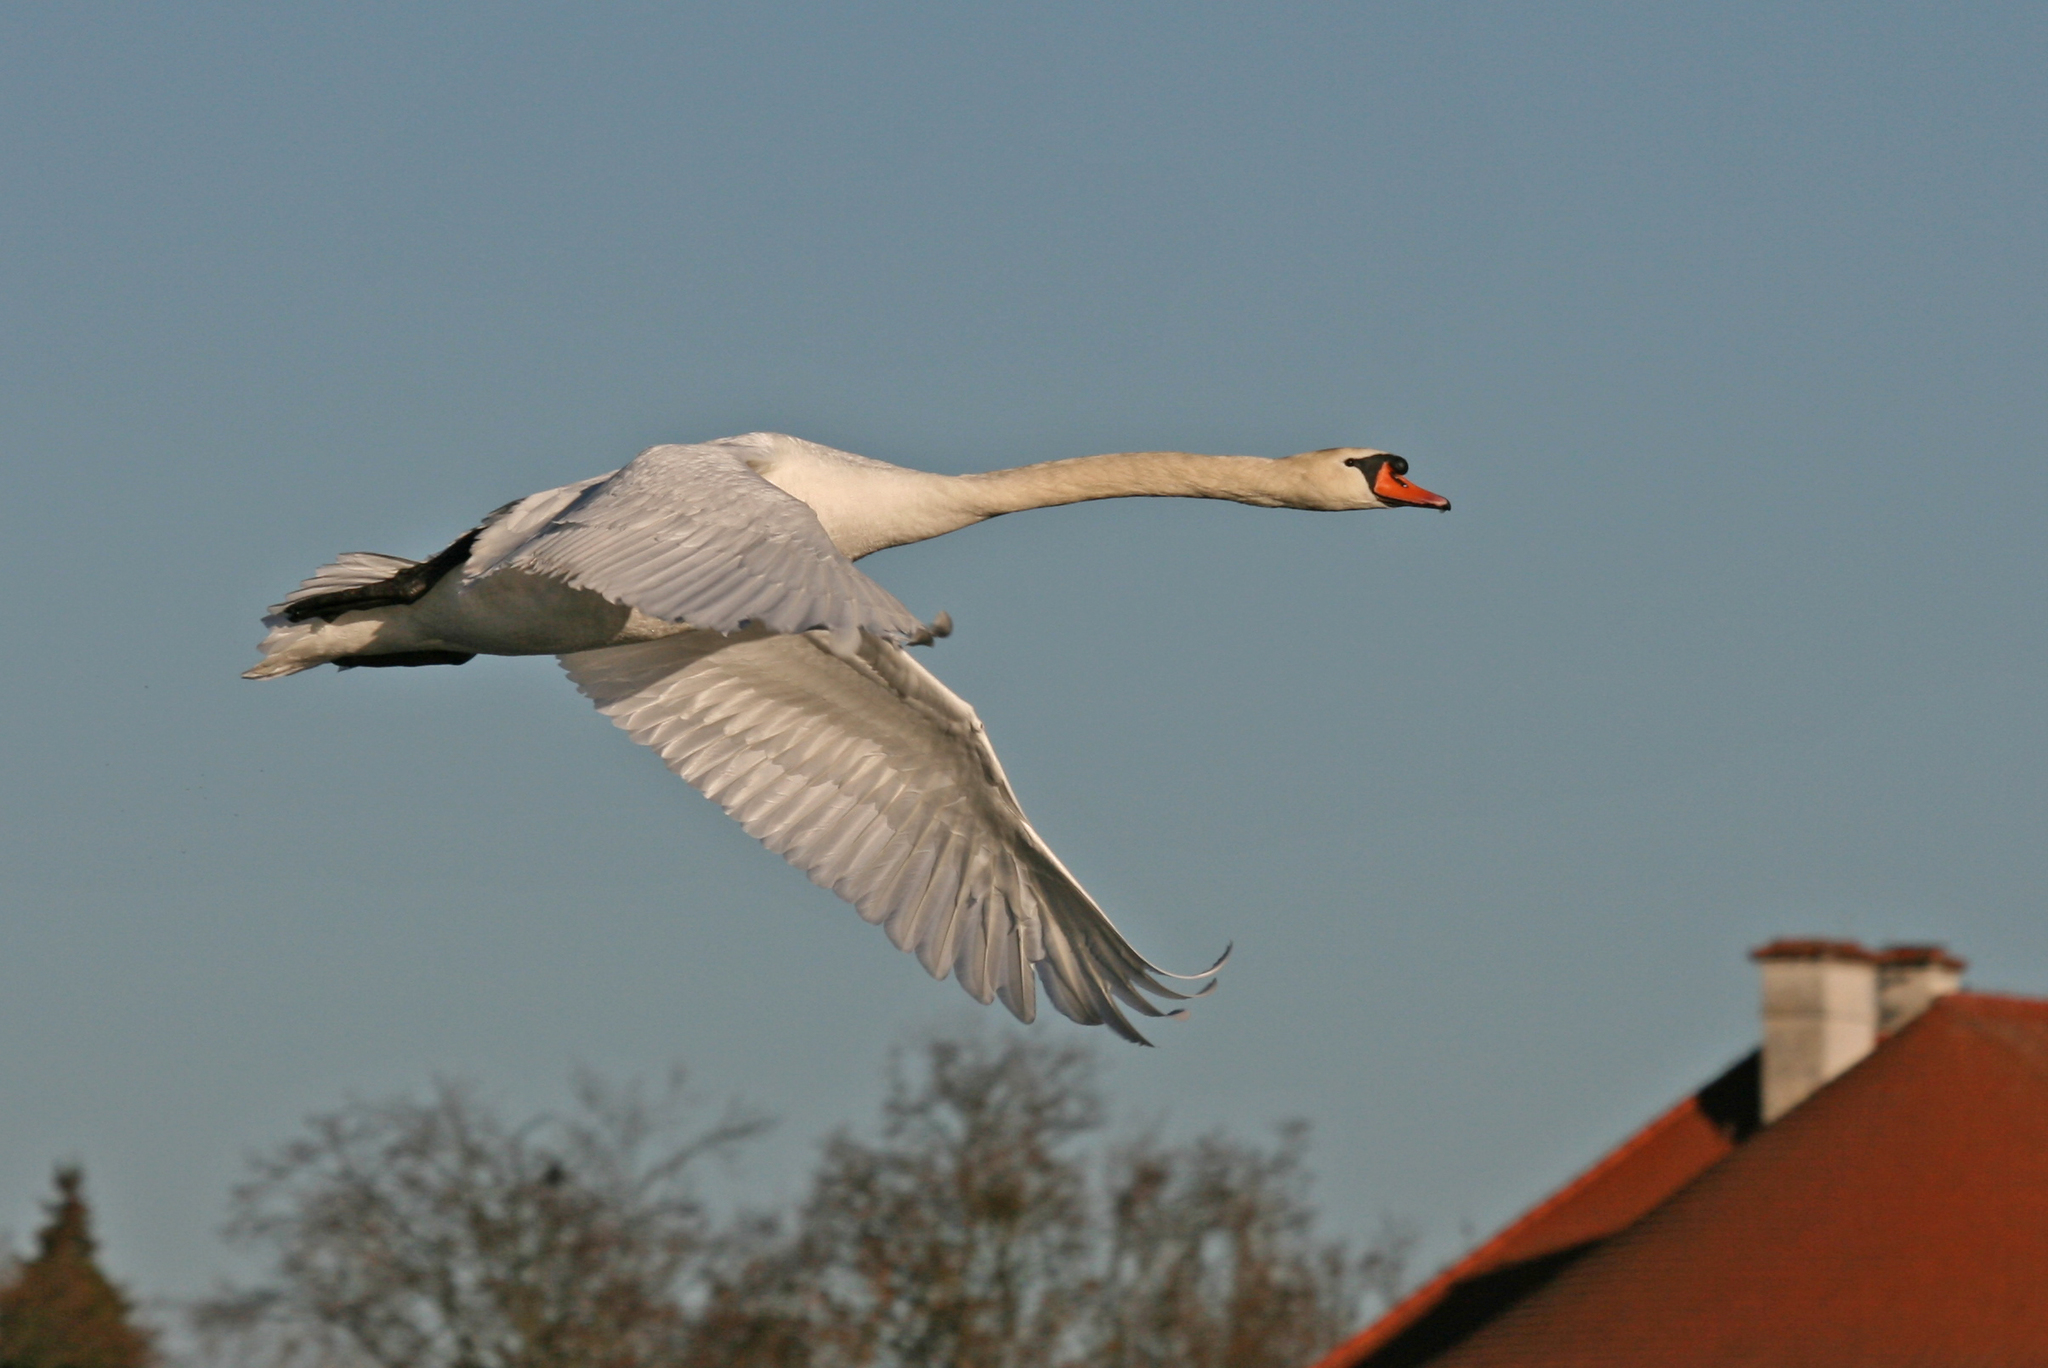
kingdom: Animalia
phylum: Chordata
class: Aves
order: Anseriformes
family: Anatidae
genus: Cygnus
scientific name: Cygnus olor
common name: Mute swan
